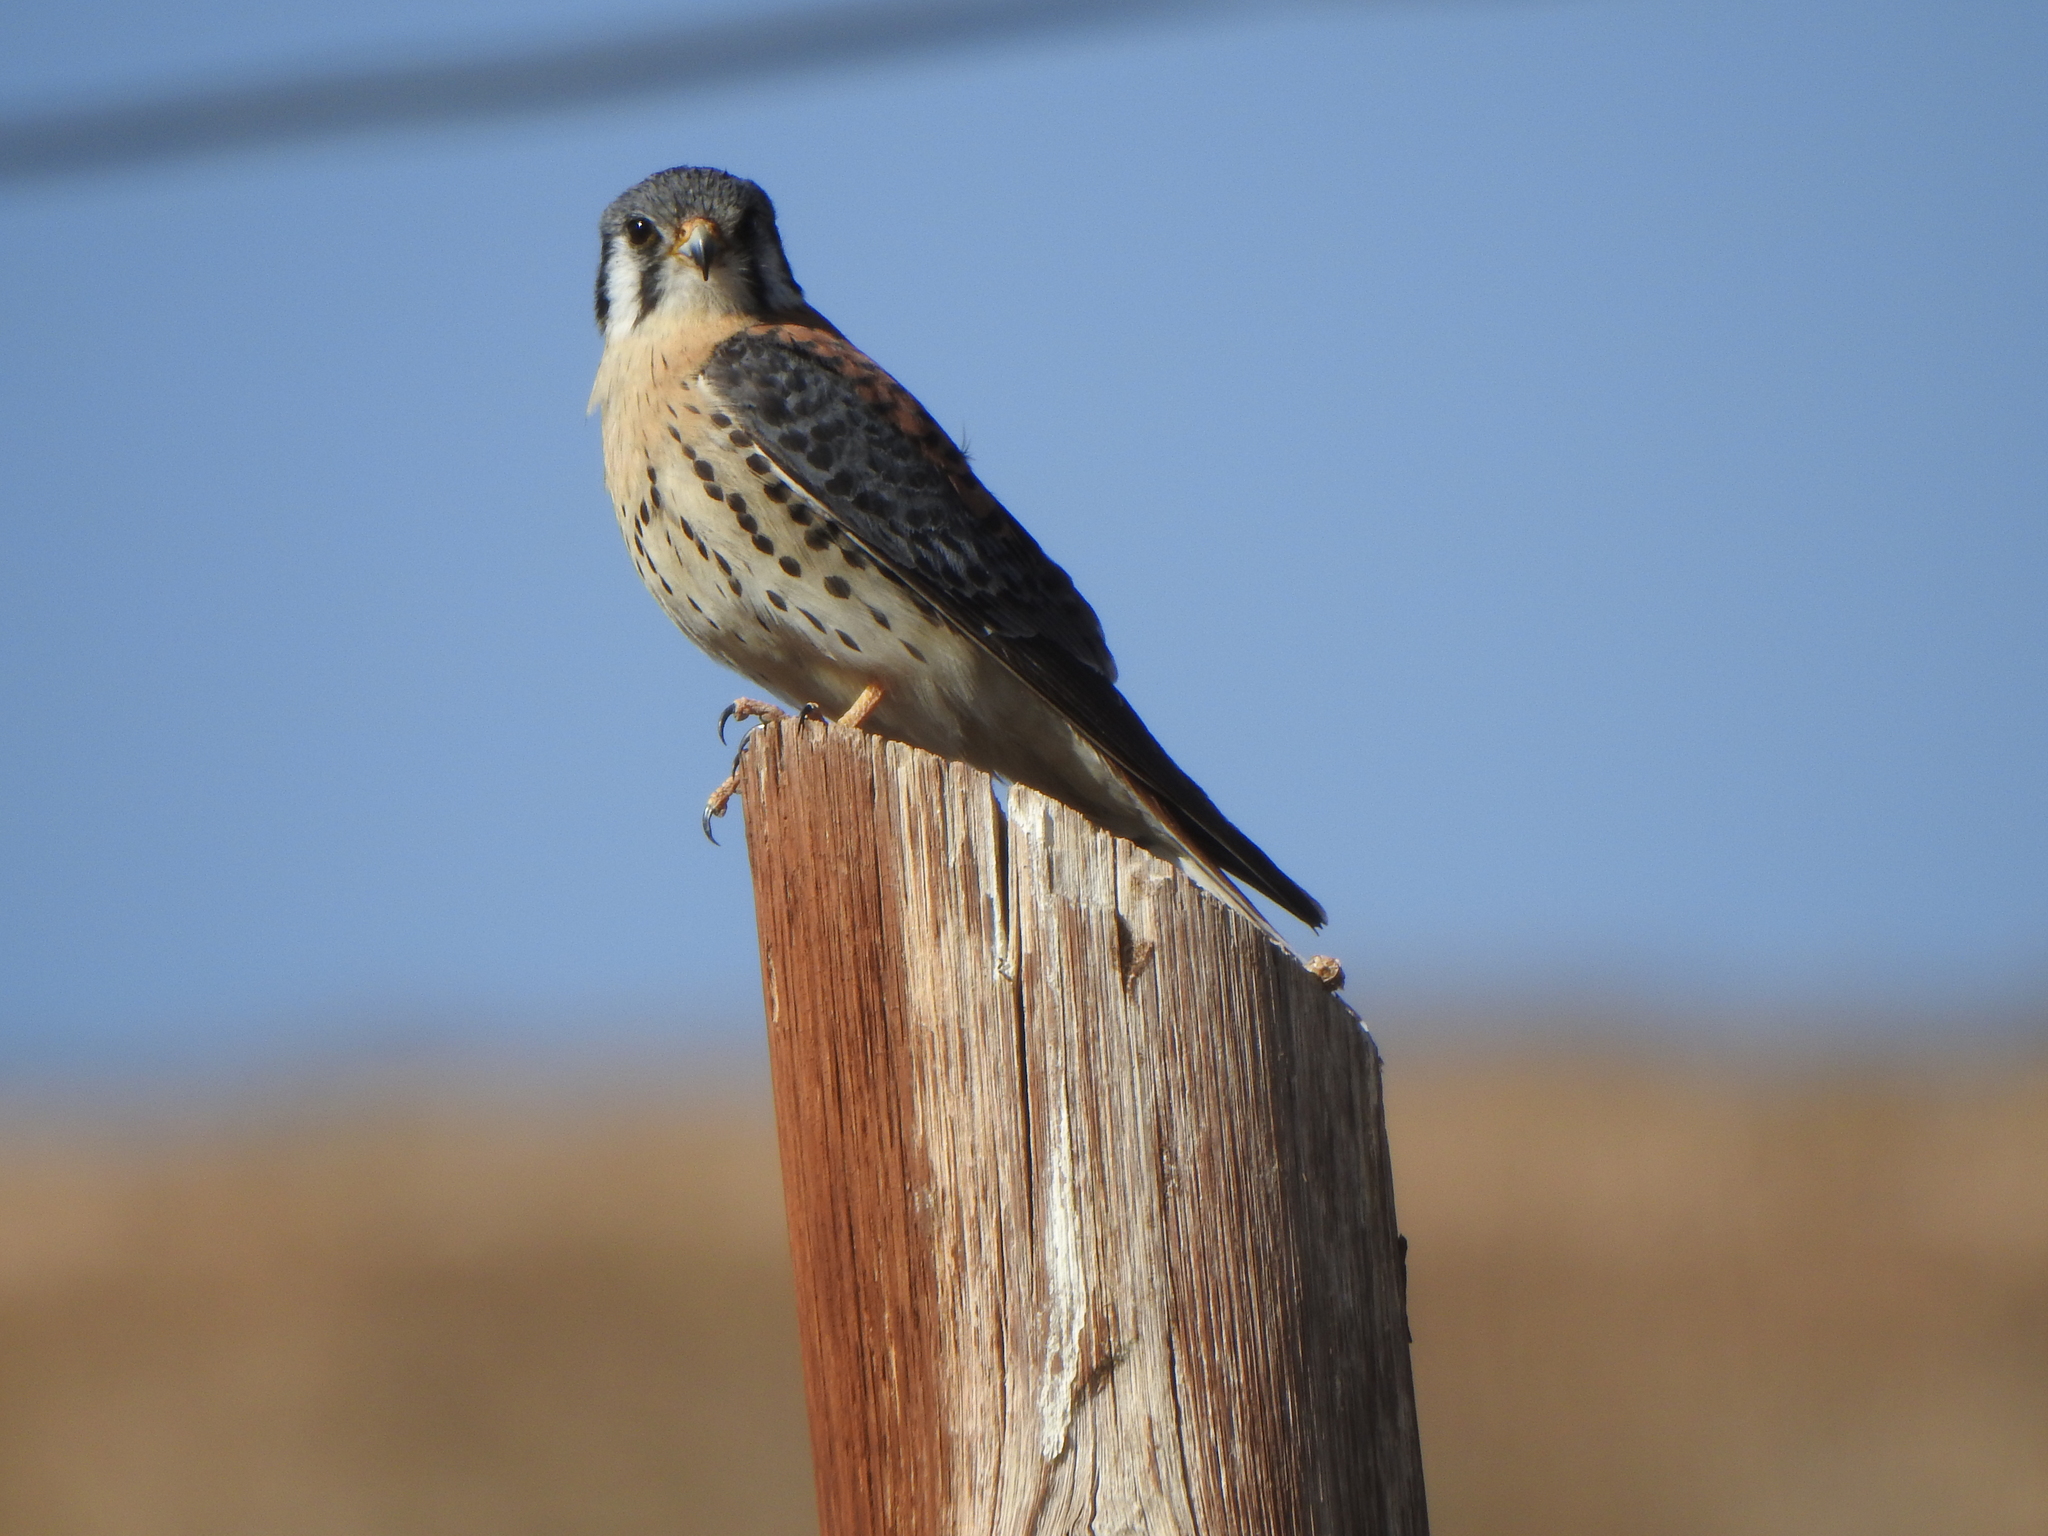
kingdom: Animalia
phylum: Chordata
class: Aves
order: Falconiformes
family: Falconidae
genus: Falco
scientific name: Falco sparverius
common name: American kestrel
